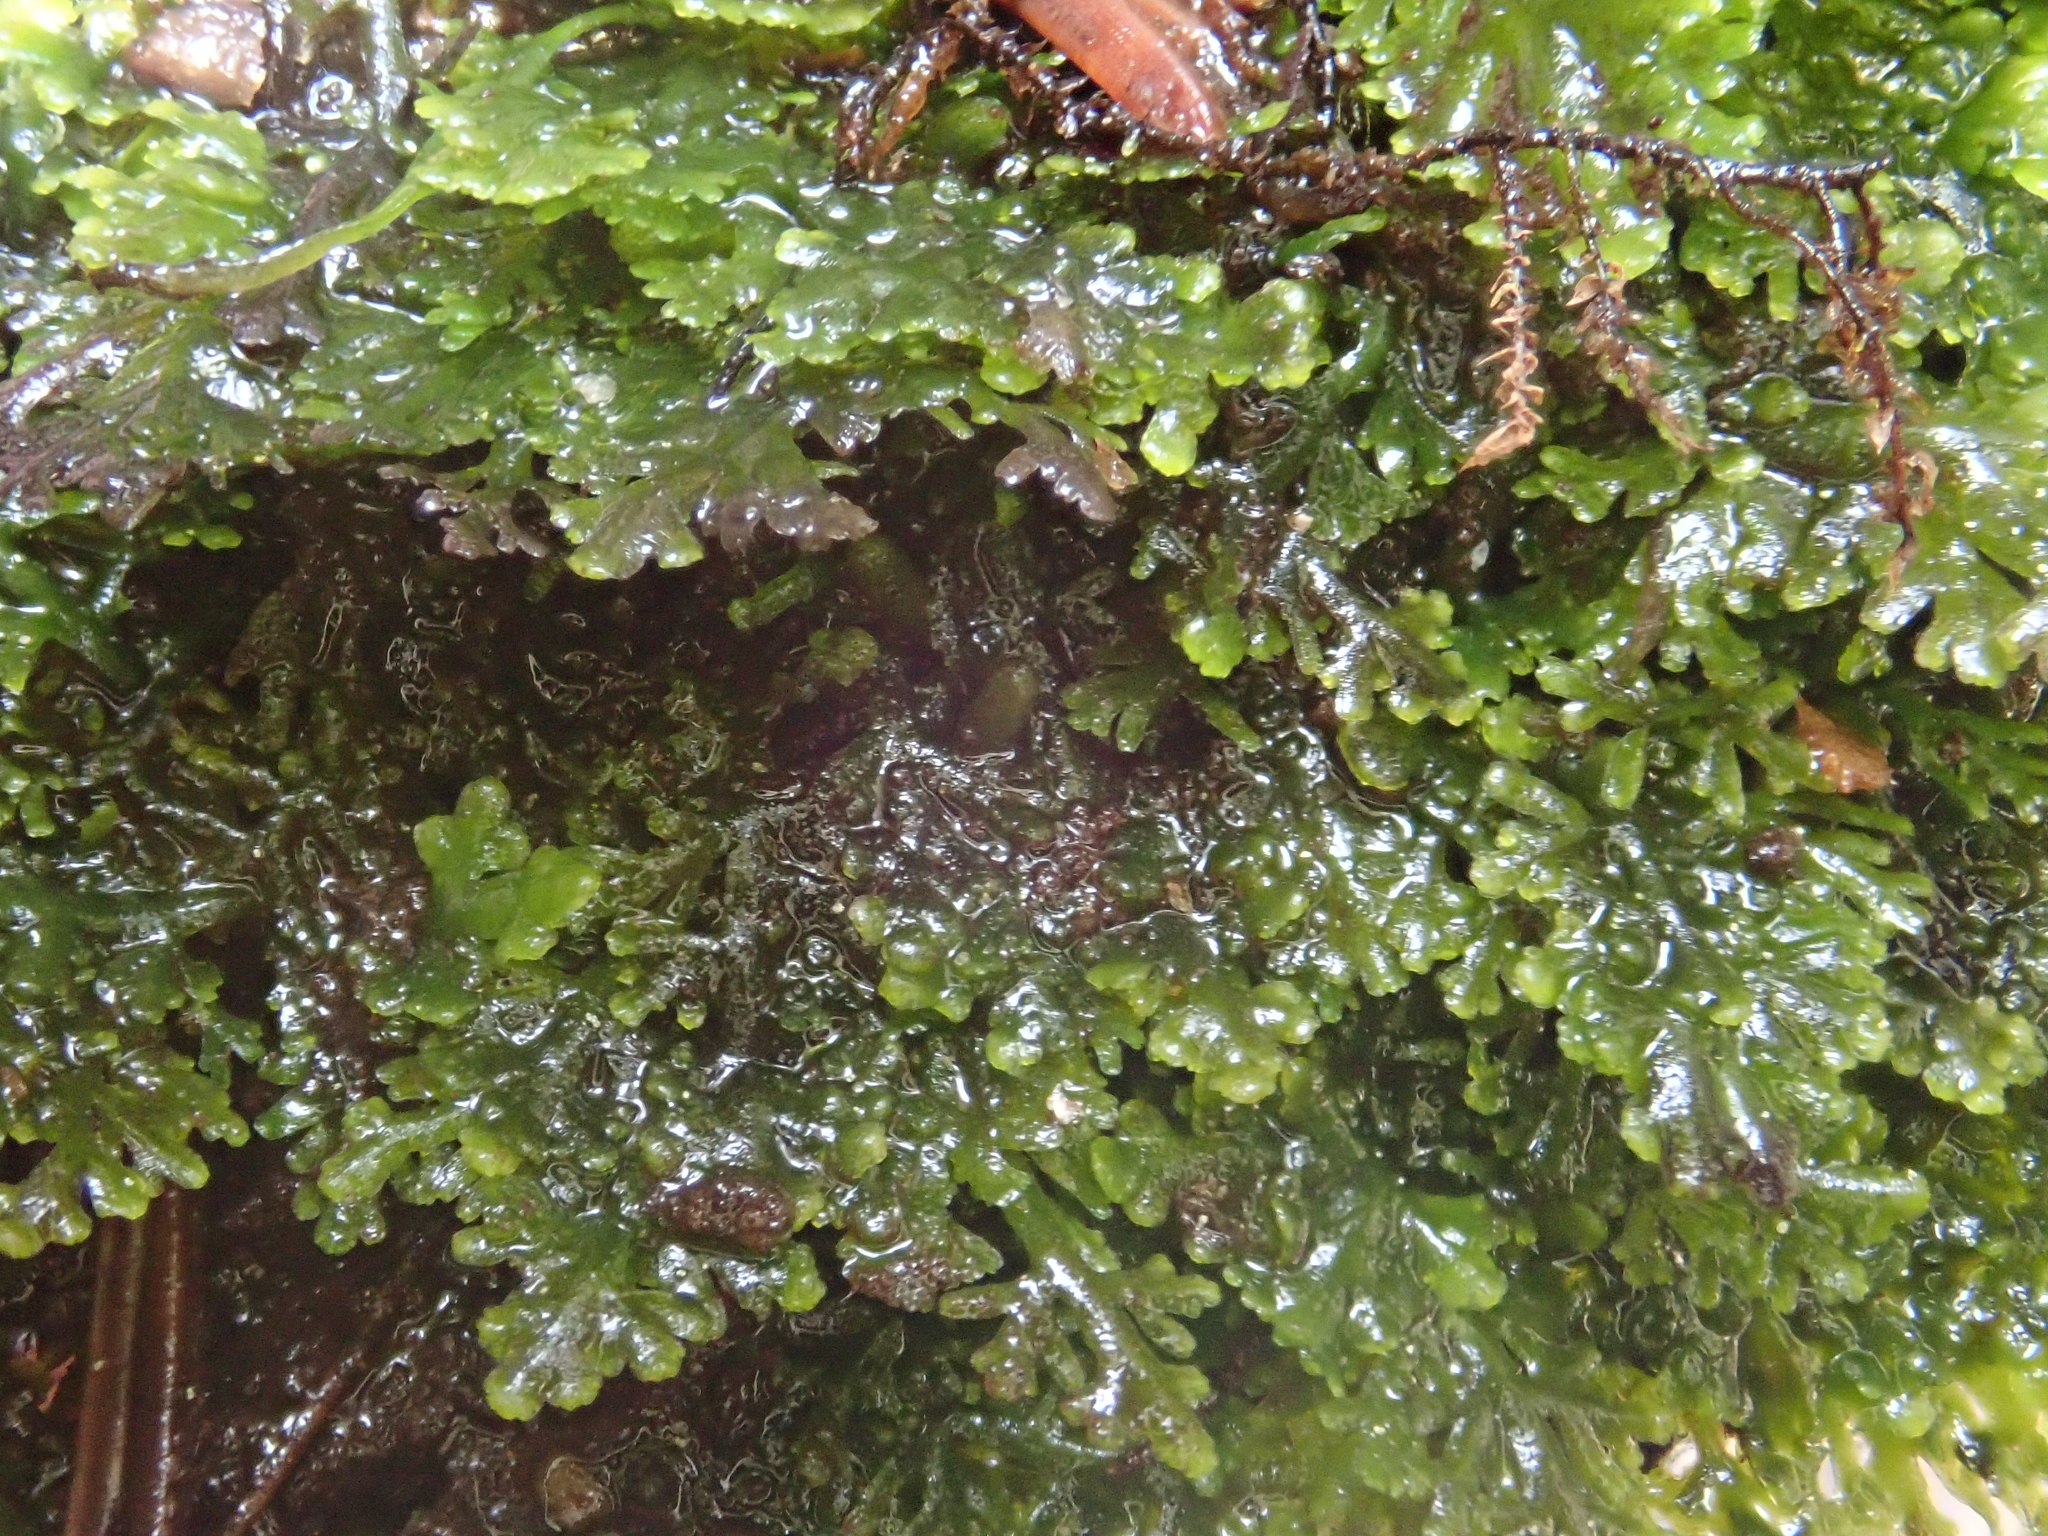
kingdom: Plantae
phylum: Marchantiophyta
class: Jungermanniopsida
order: Metzgeriales
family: Aneuraceae
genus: Riccardia
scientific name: Riccardia multifida
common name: Delicate germanderwort
